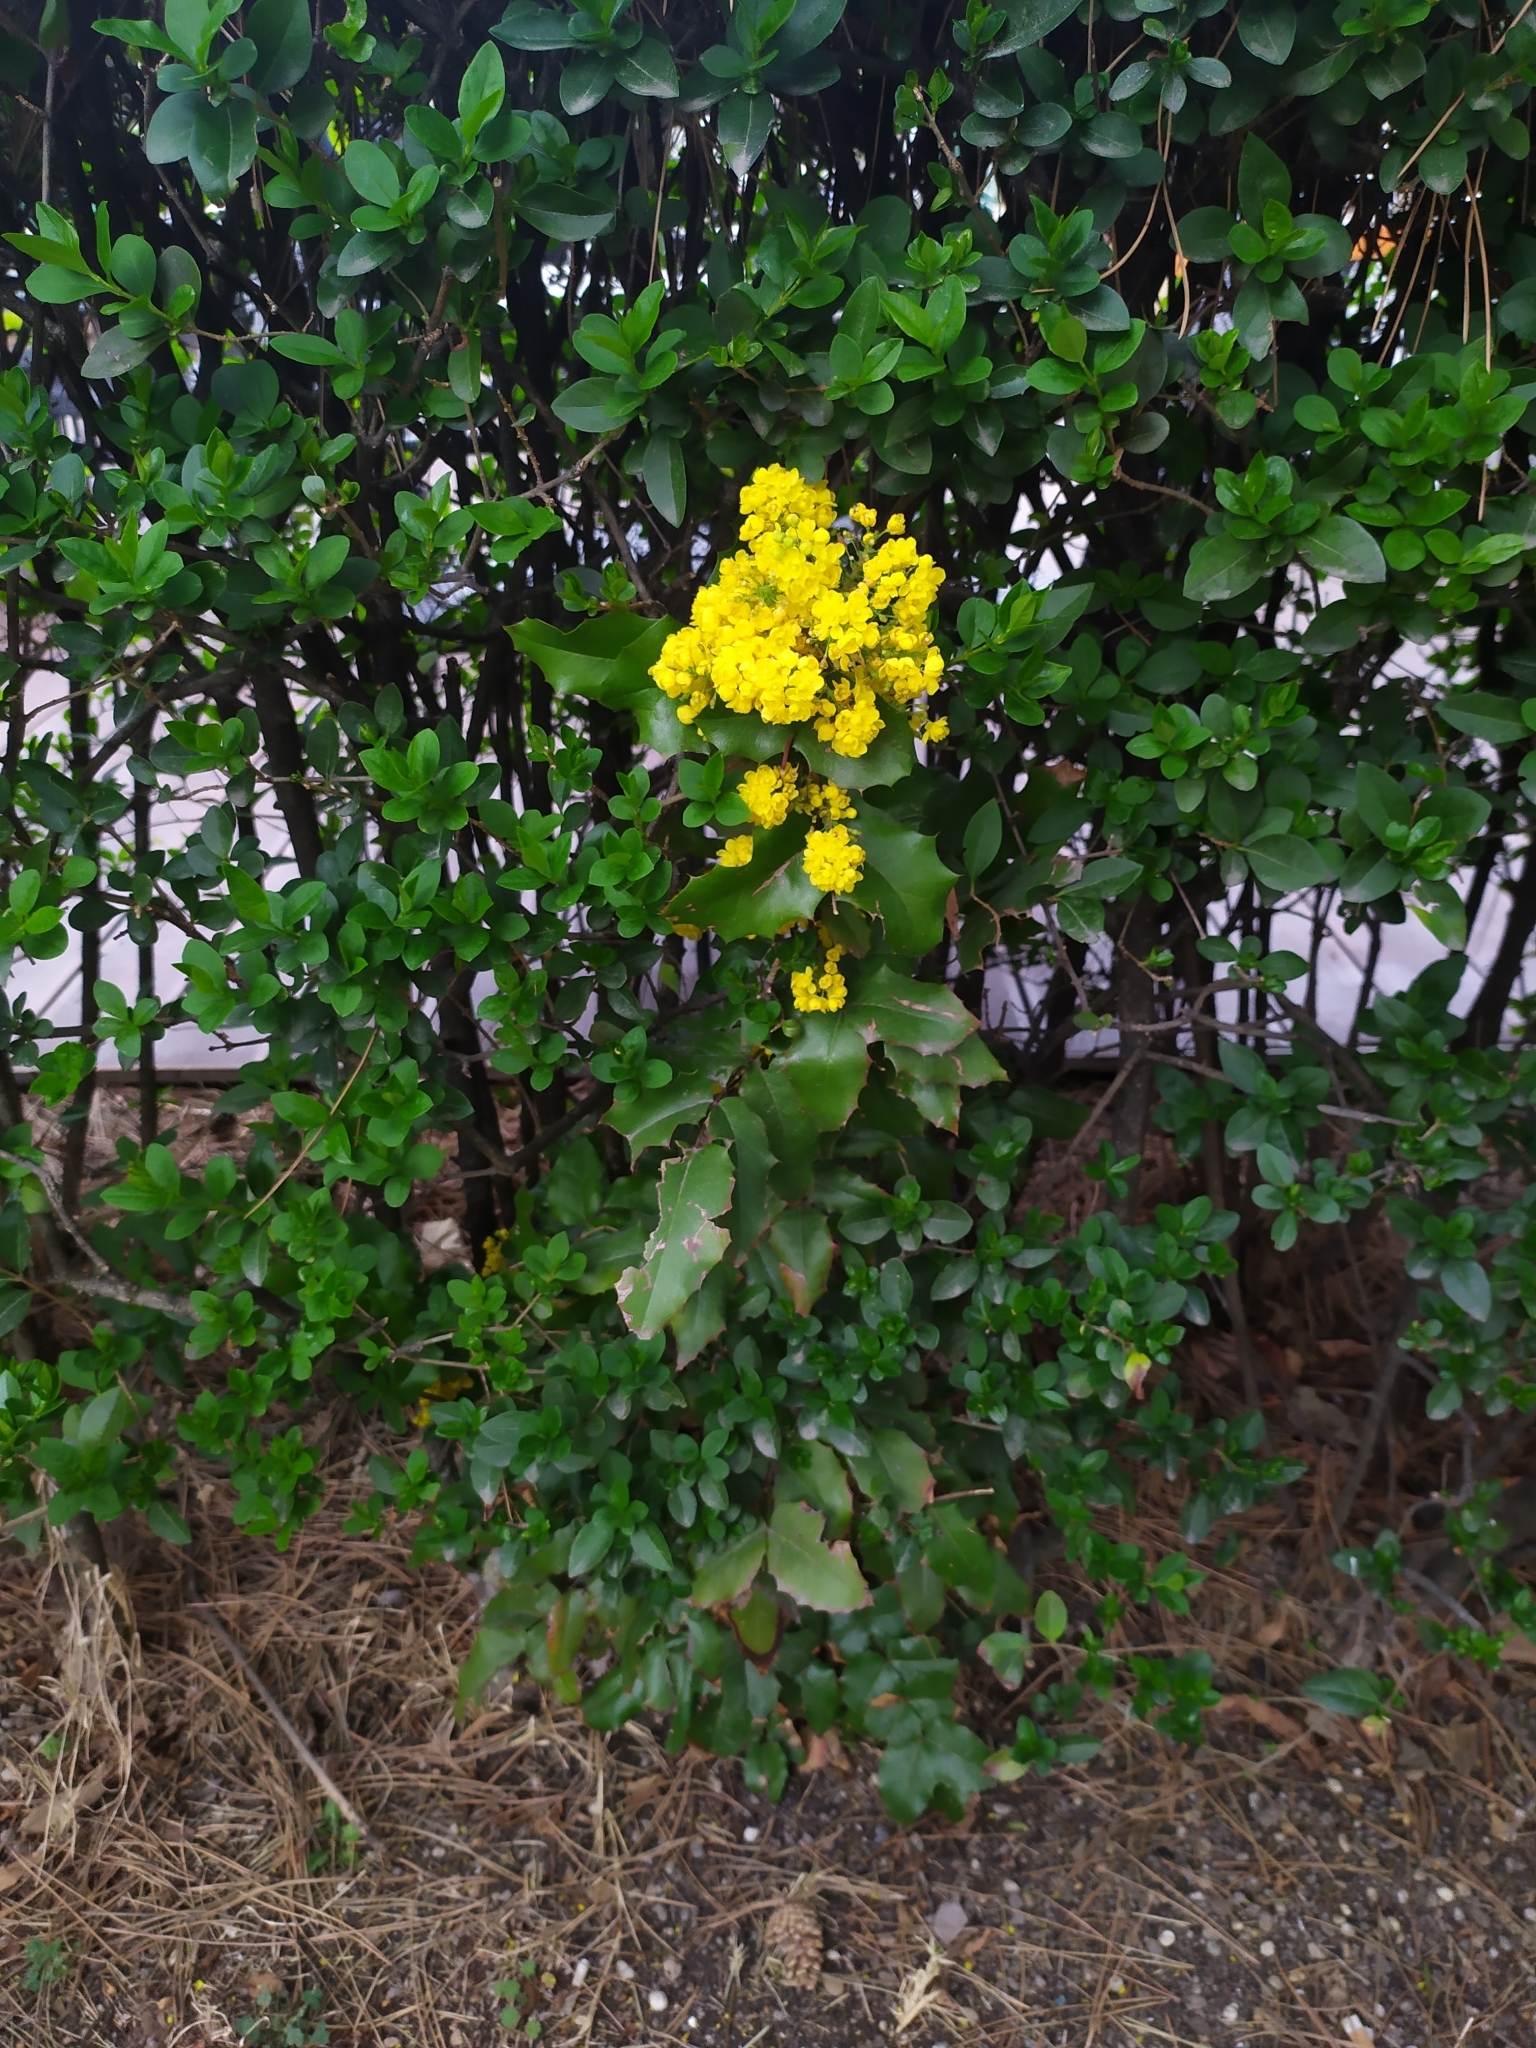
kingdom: Plantae
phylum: Tracheophyta
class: Magnoliopsida
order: Ranunculales
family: Berberidaceae
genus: Mahonia
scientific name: Mahonia aquifolium
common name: Oregon-grape
